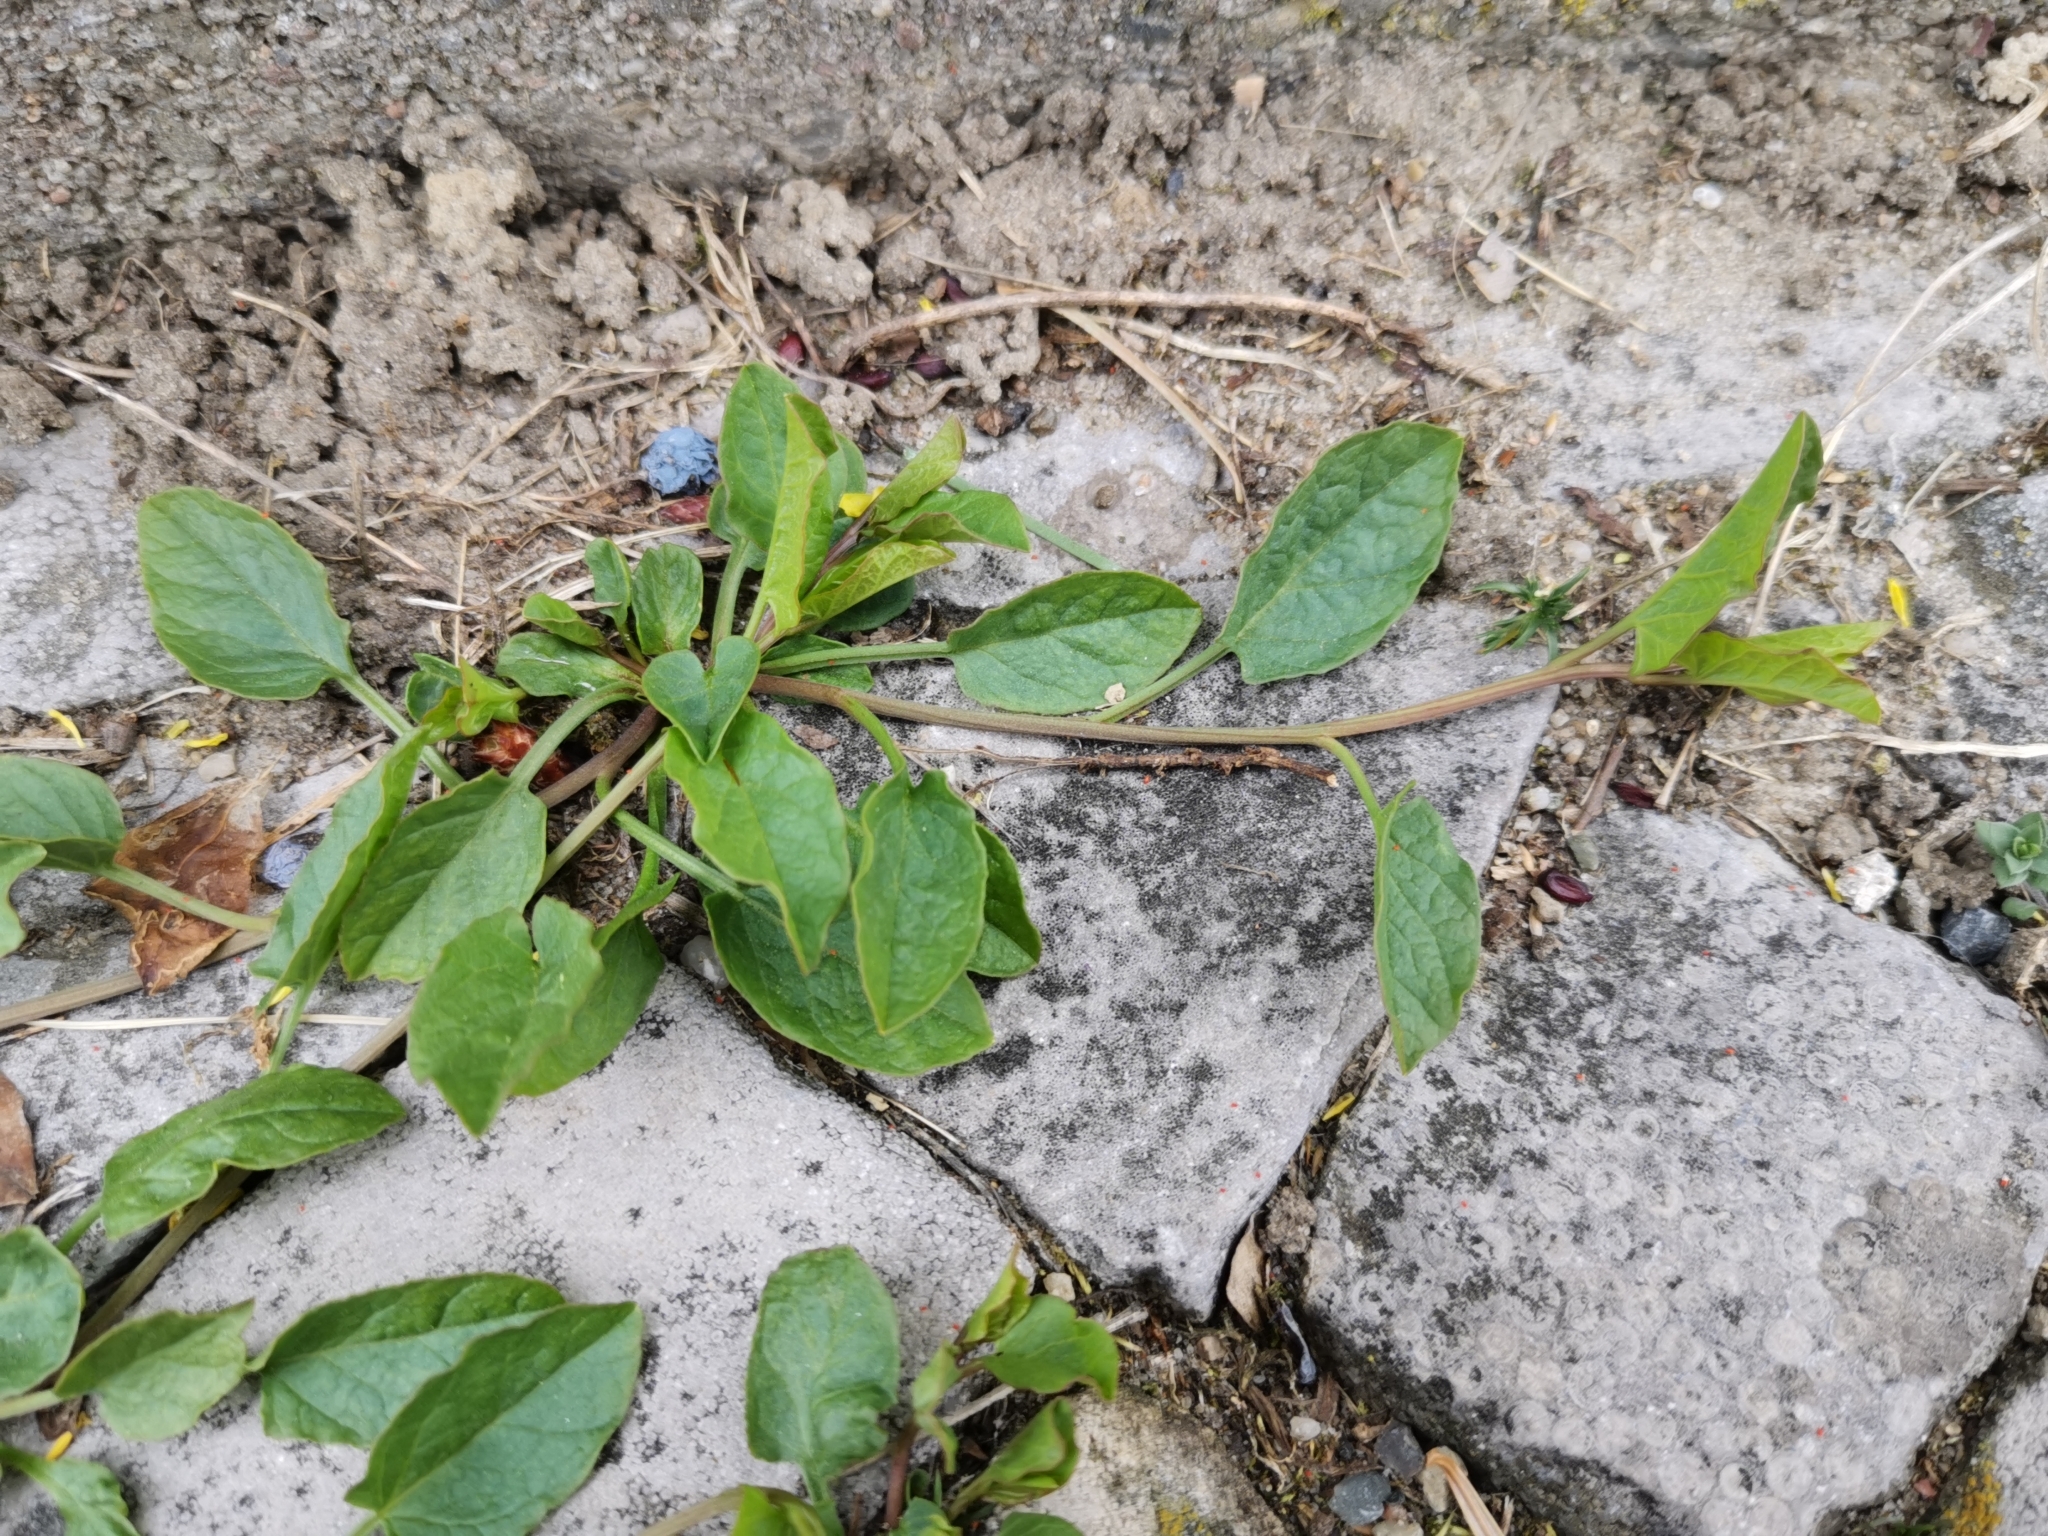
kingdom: Plantae
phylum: Tracheophyta
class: Magnoliopsida
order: Solanales
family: Convolvulaceae
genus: Convolvulus
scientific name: Convolvulus arvensis
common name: Field bindweed
